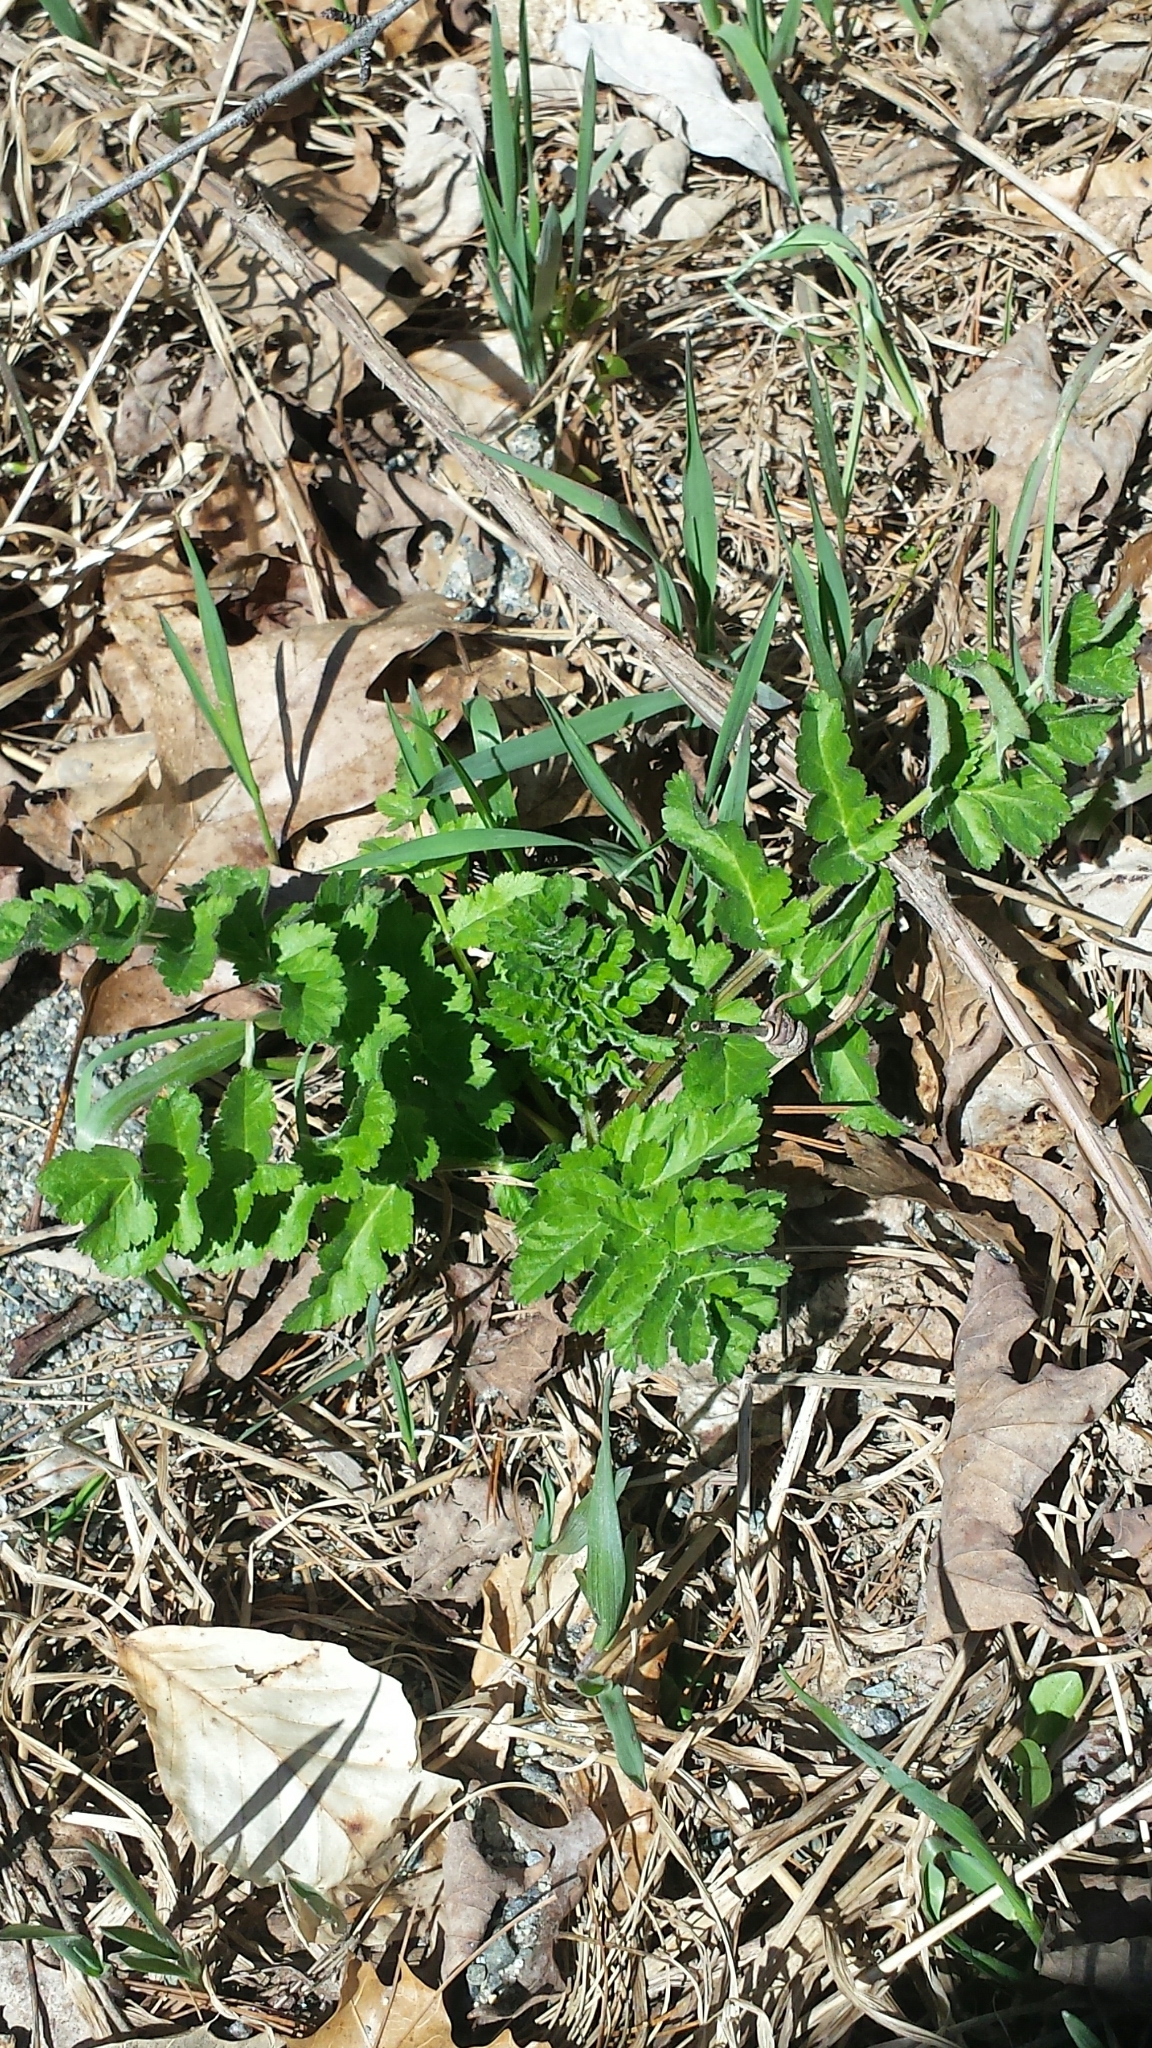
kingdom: Plantae
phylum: Tracheophyta
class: Magnoliopsida
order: Apiales
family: Apiaceae
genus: Pastinaca
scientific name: Pastinaca sativa
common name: Wild parsnip
